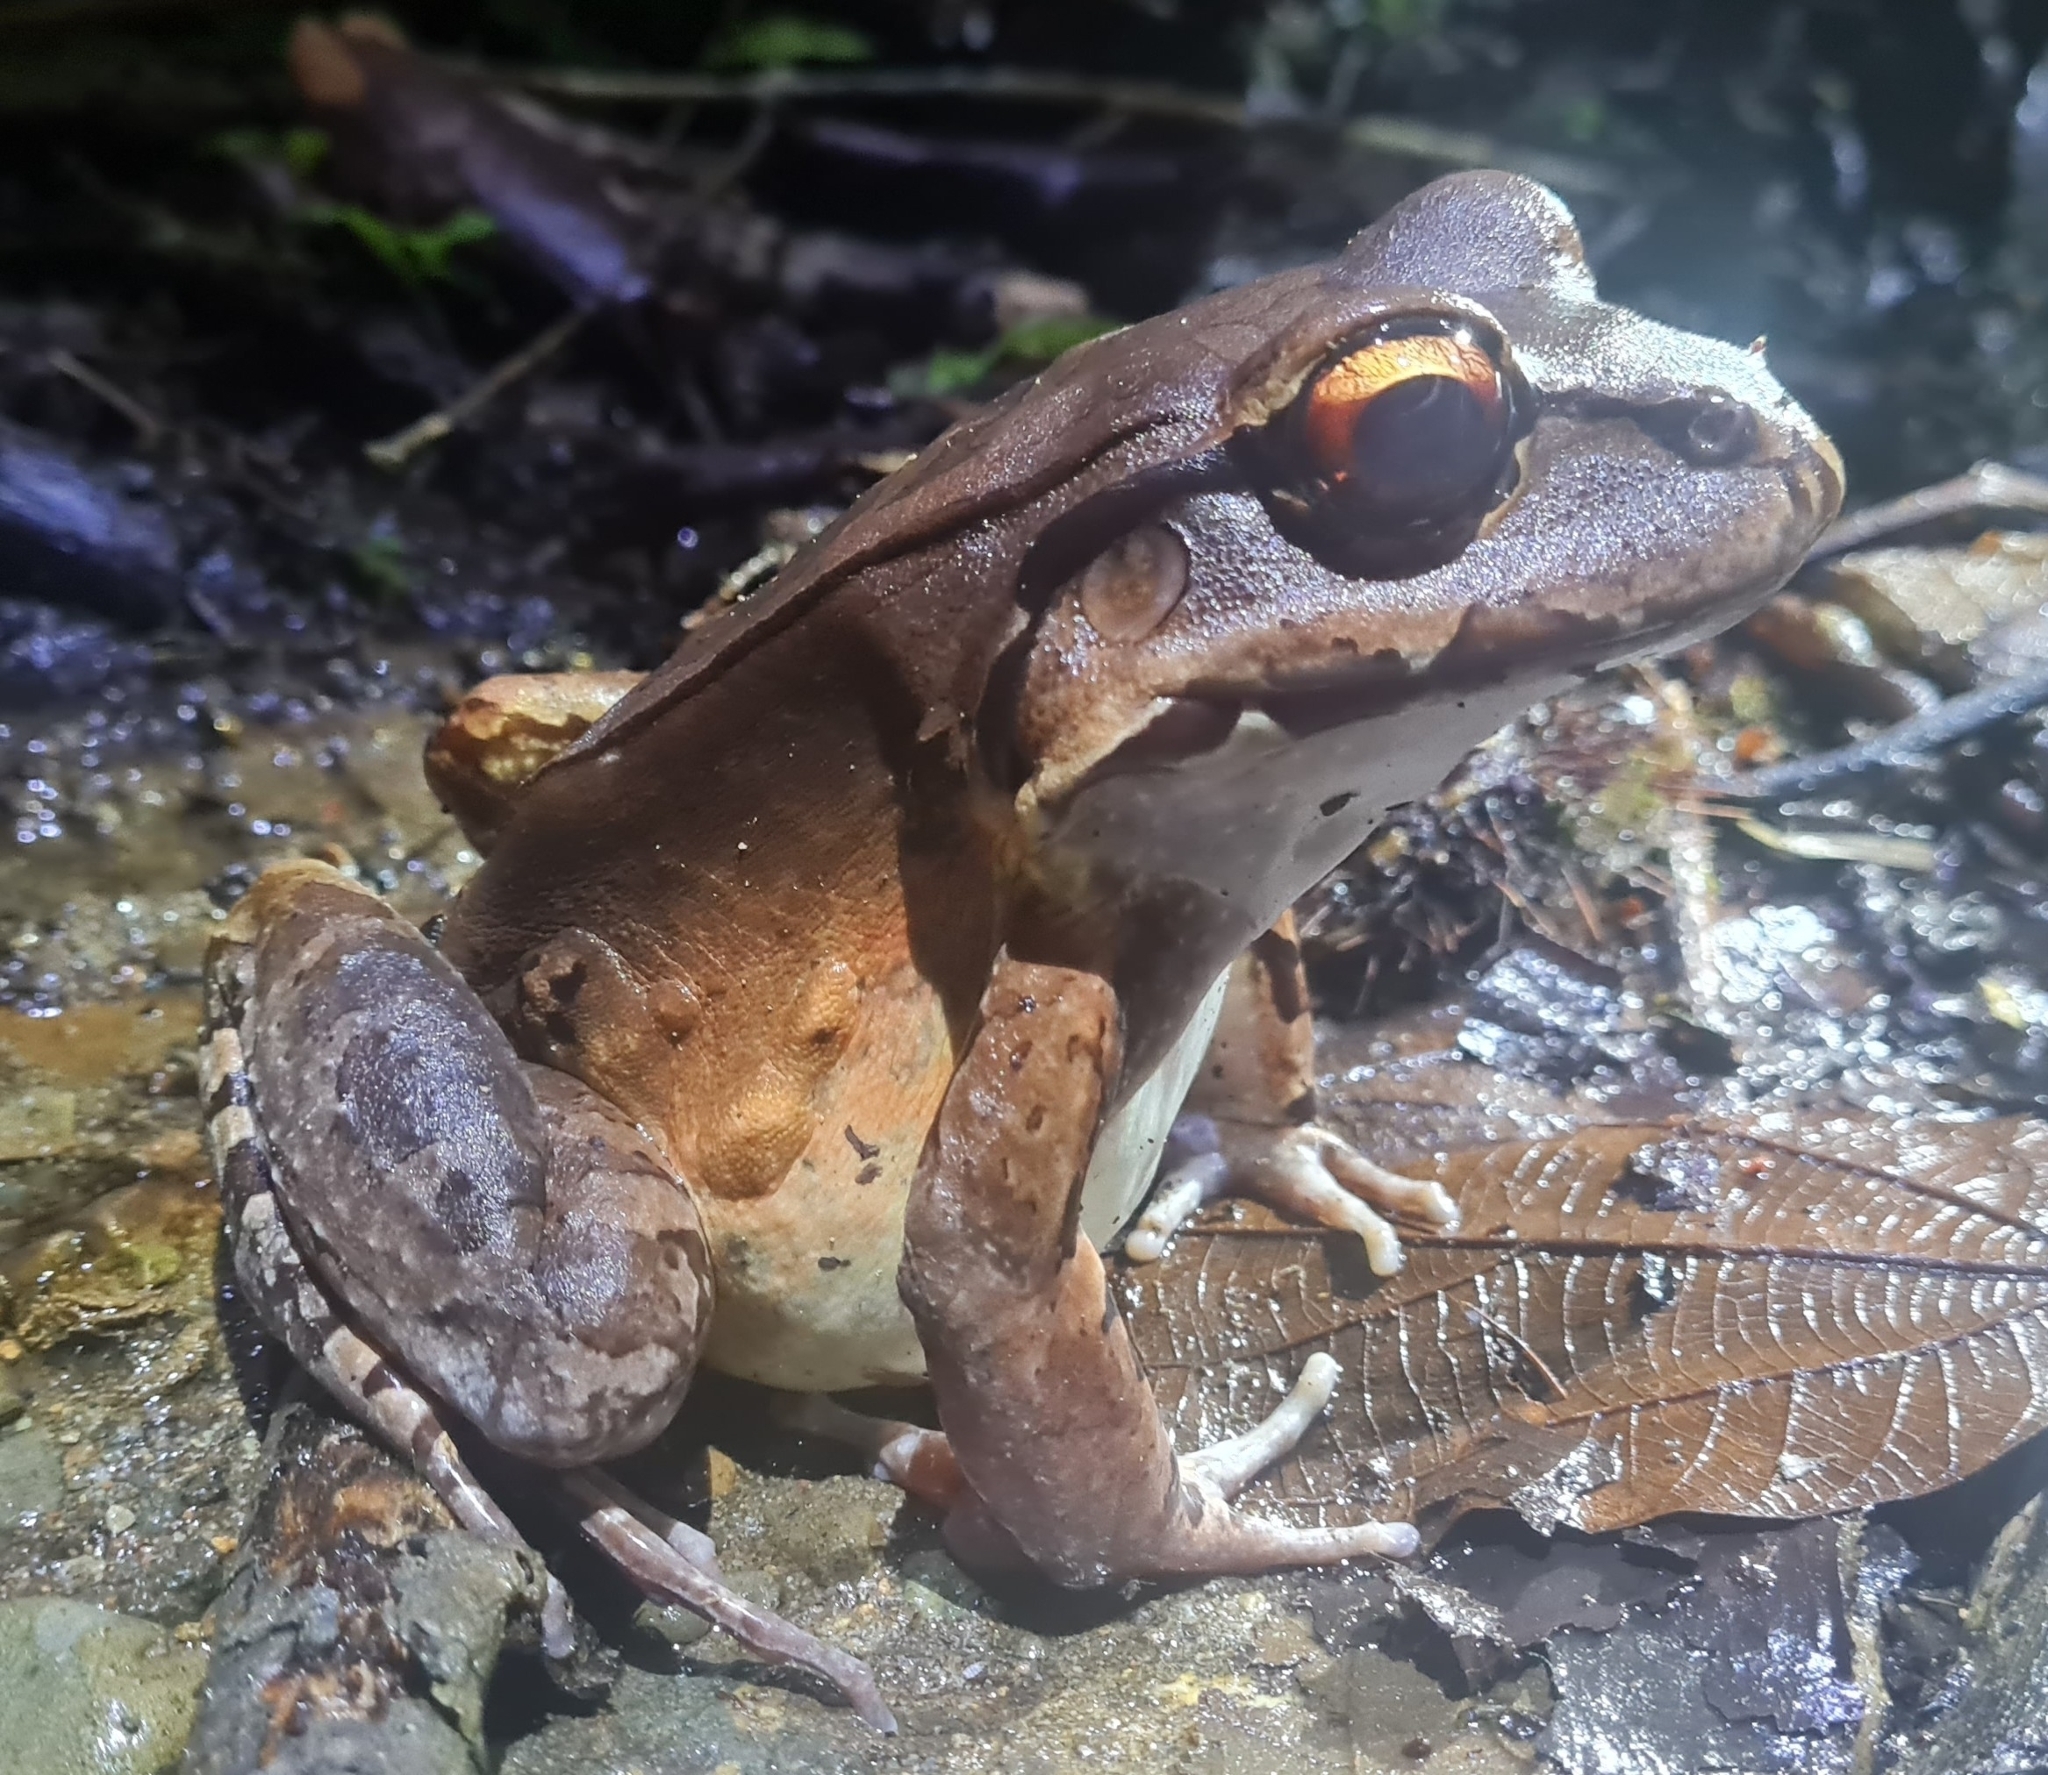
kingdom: Animalia
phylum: Chordata
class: Amphibia
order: Anura
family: Leptodactylidae
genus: Leptodactylus
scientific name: Leptodactylus savagei
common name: Savage's thin-toed frog
